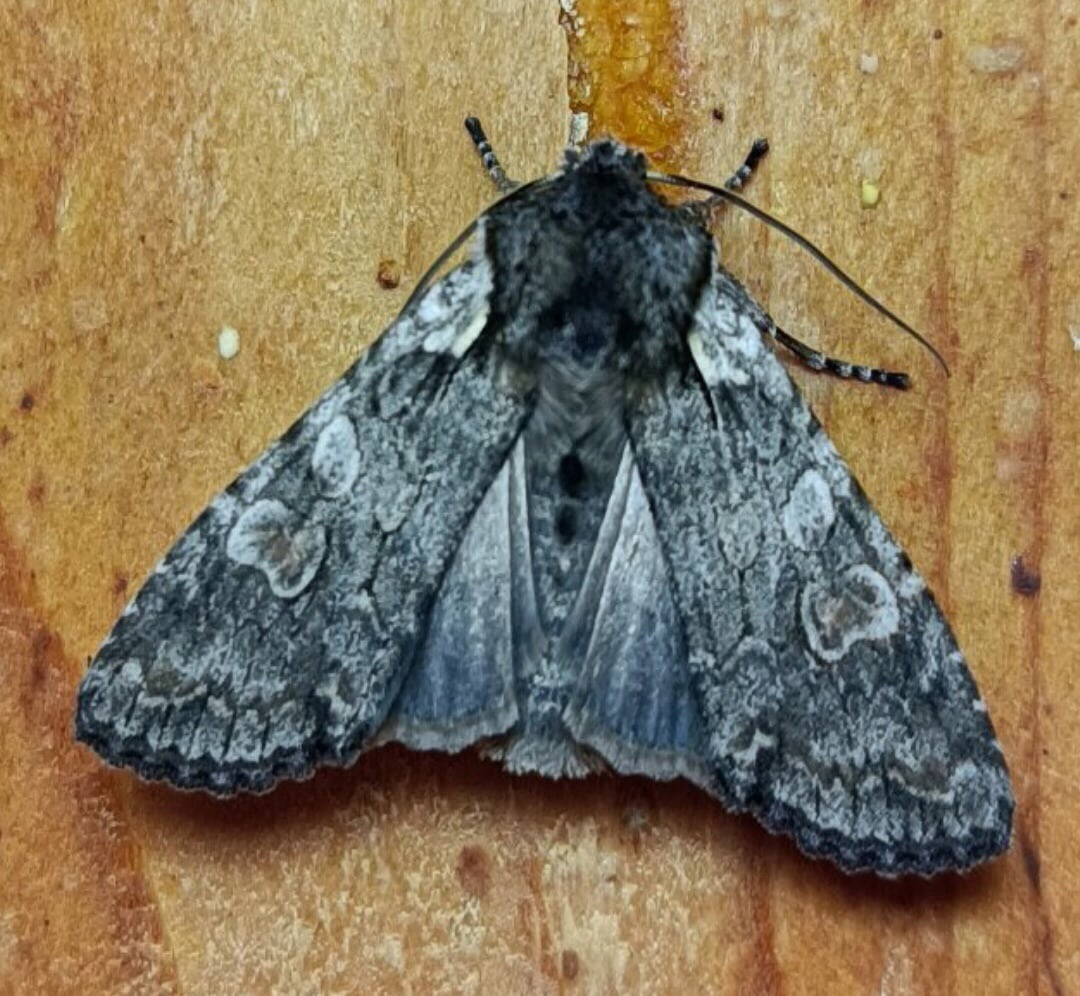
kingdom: Animalia
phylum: Arthropoda
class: Insecta
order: Lepidoptera
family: Noctuidae
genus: Lithophane
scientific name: Lithophane consocia
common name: Softly's shoulder-knot
